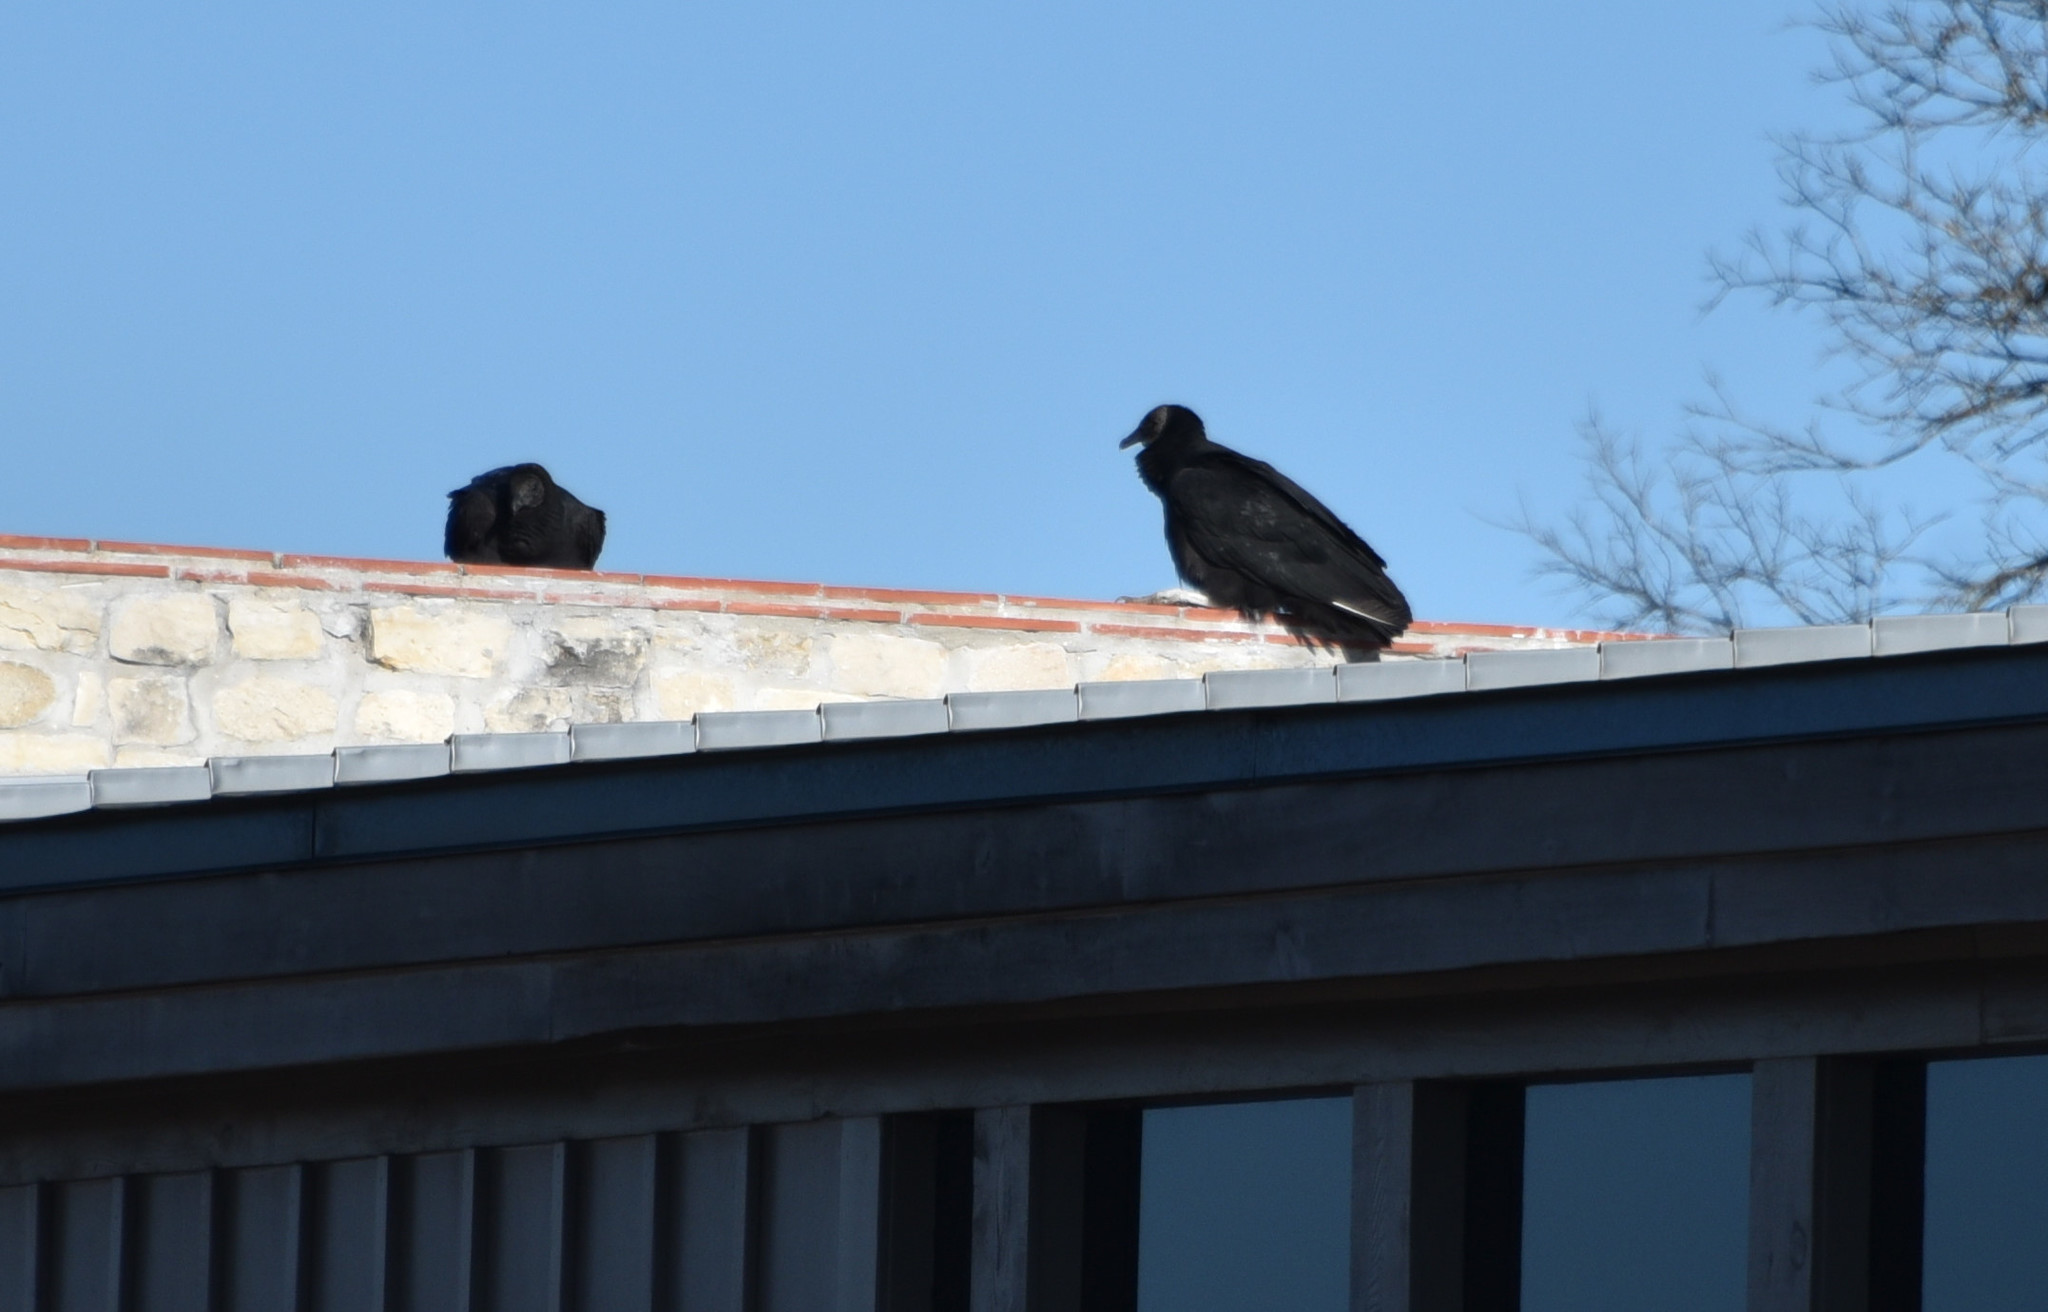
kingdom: Animalia
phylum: Chordata
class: Aves
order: Accipitriformes
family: Cathartidae
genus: Coragyps
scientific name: Coragyps atratus
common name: Black vulture
